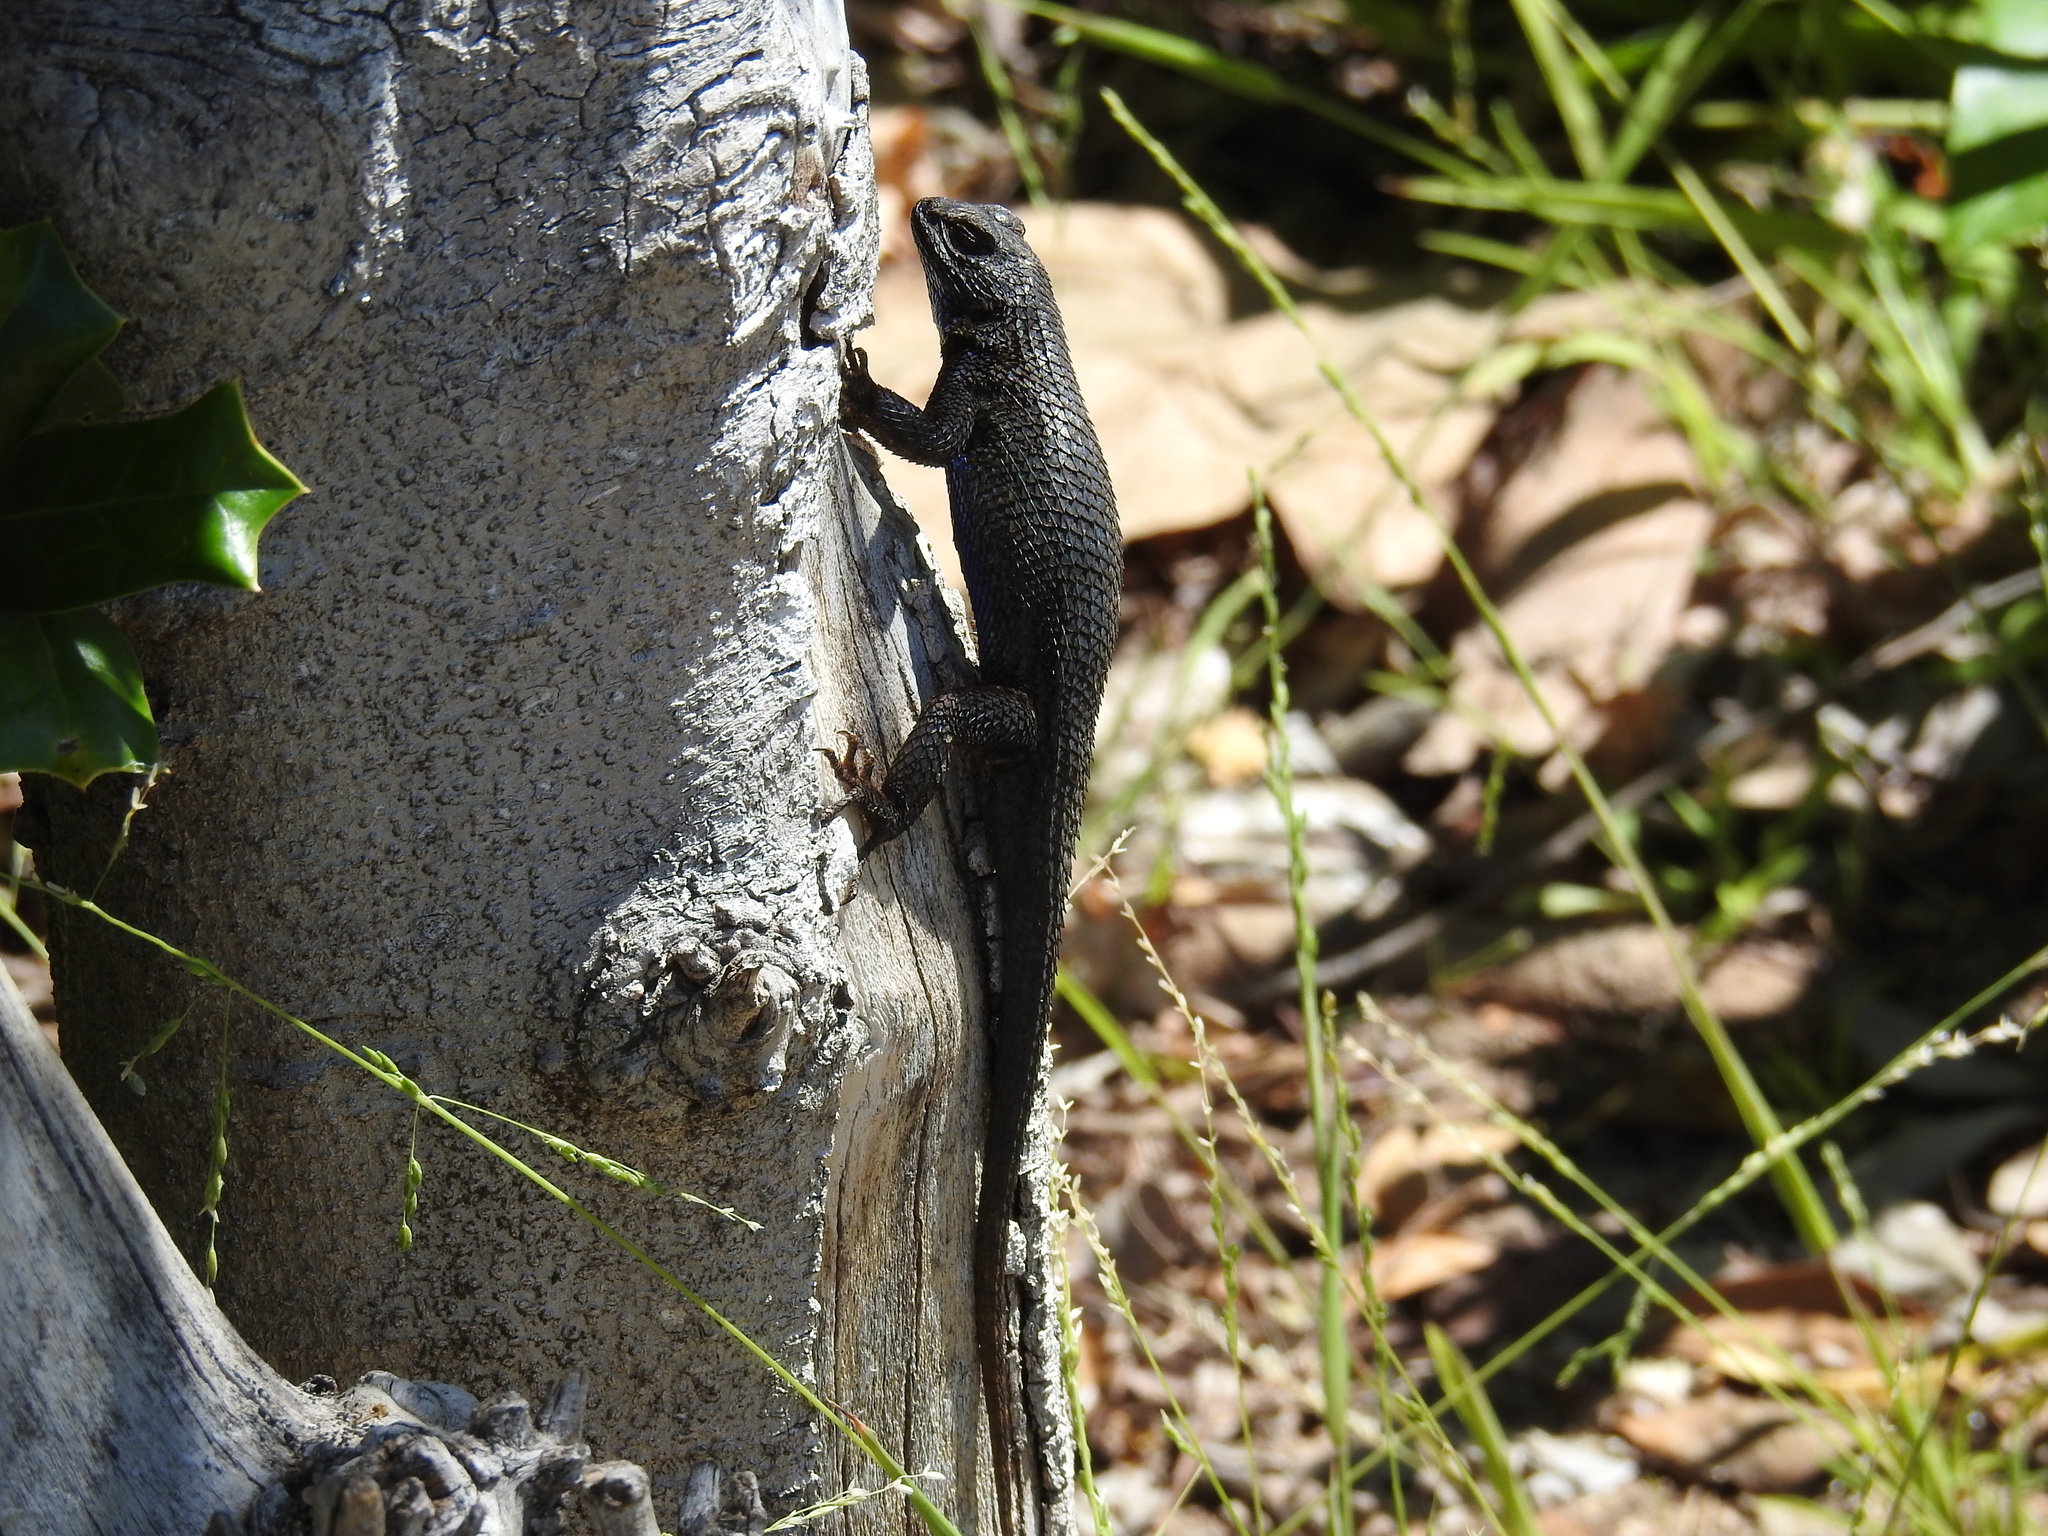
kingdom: Animalia
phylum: Chordata
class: Squamata
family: Phrynosomatidae
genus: Sceloporus
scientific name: Sceloporus occidentalis
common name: Western fence lizard
